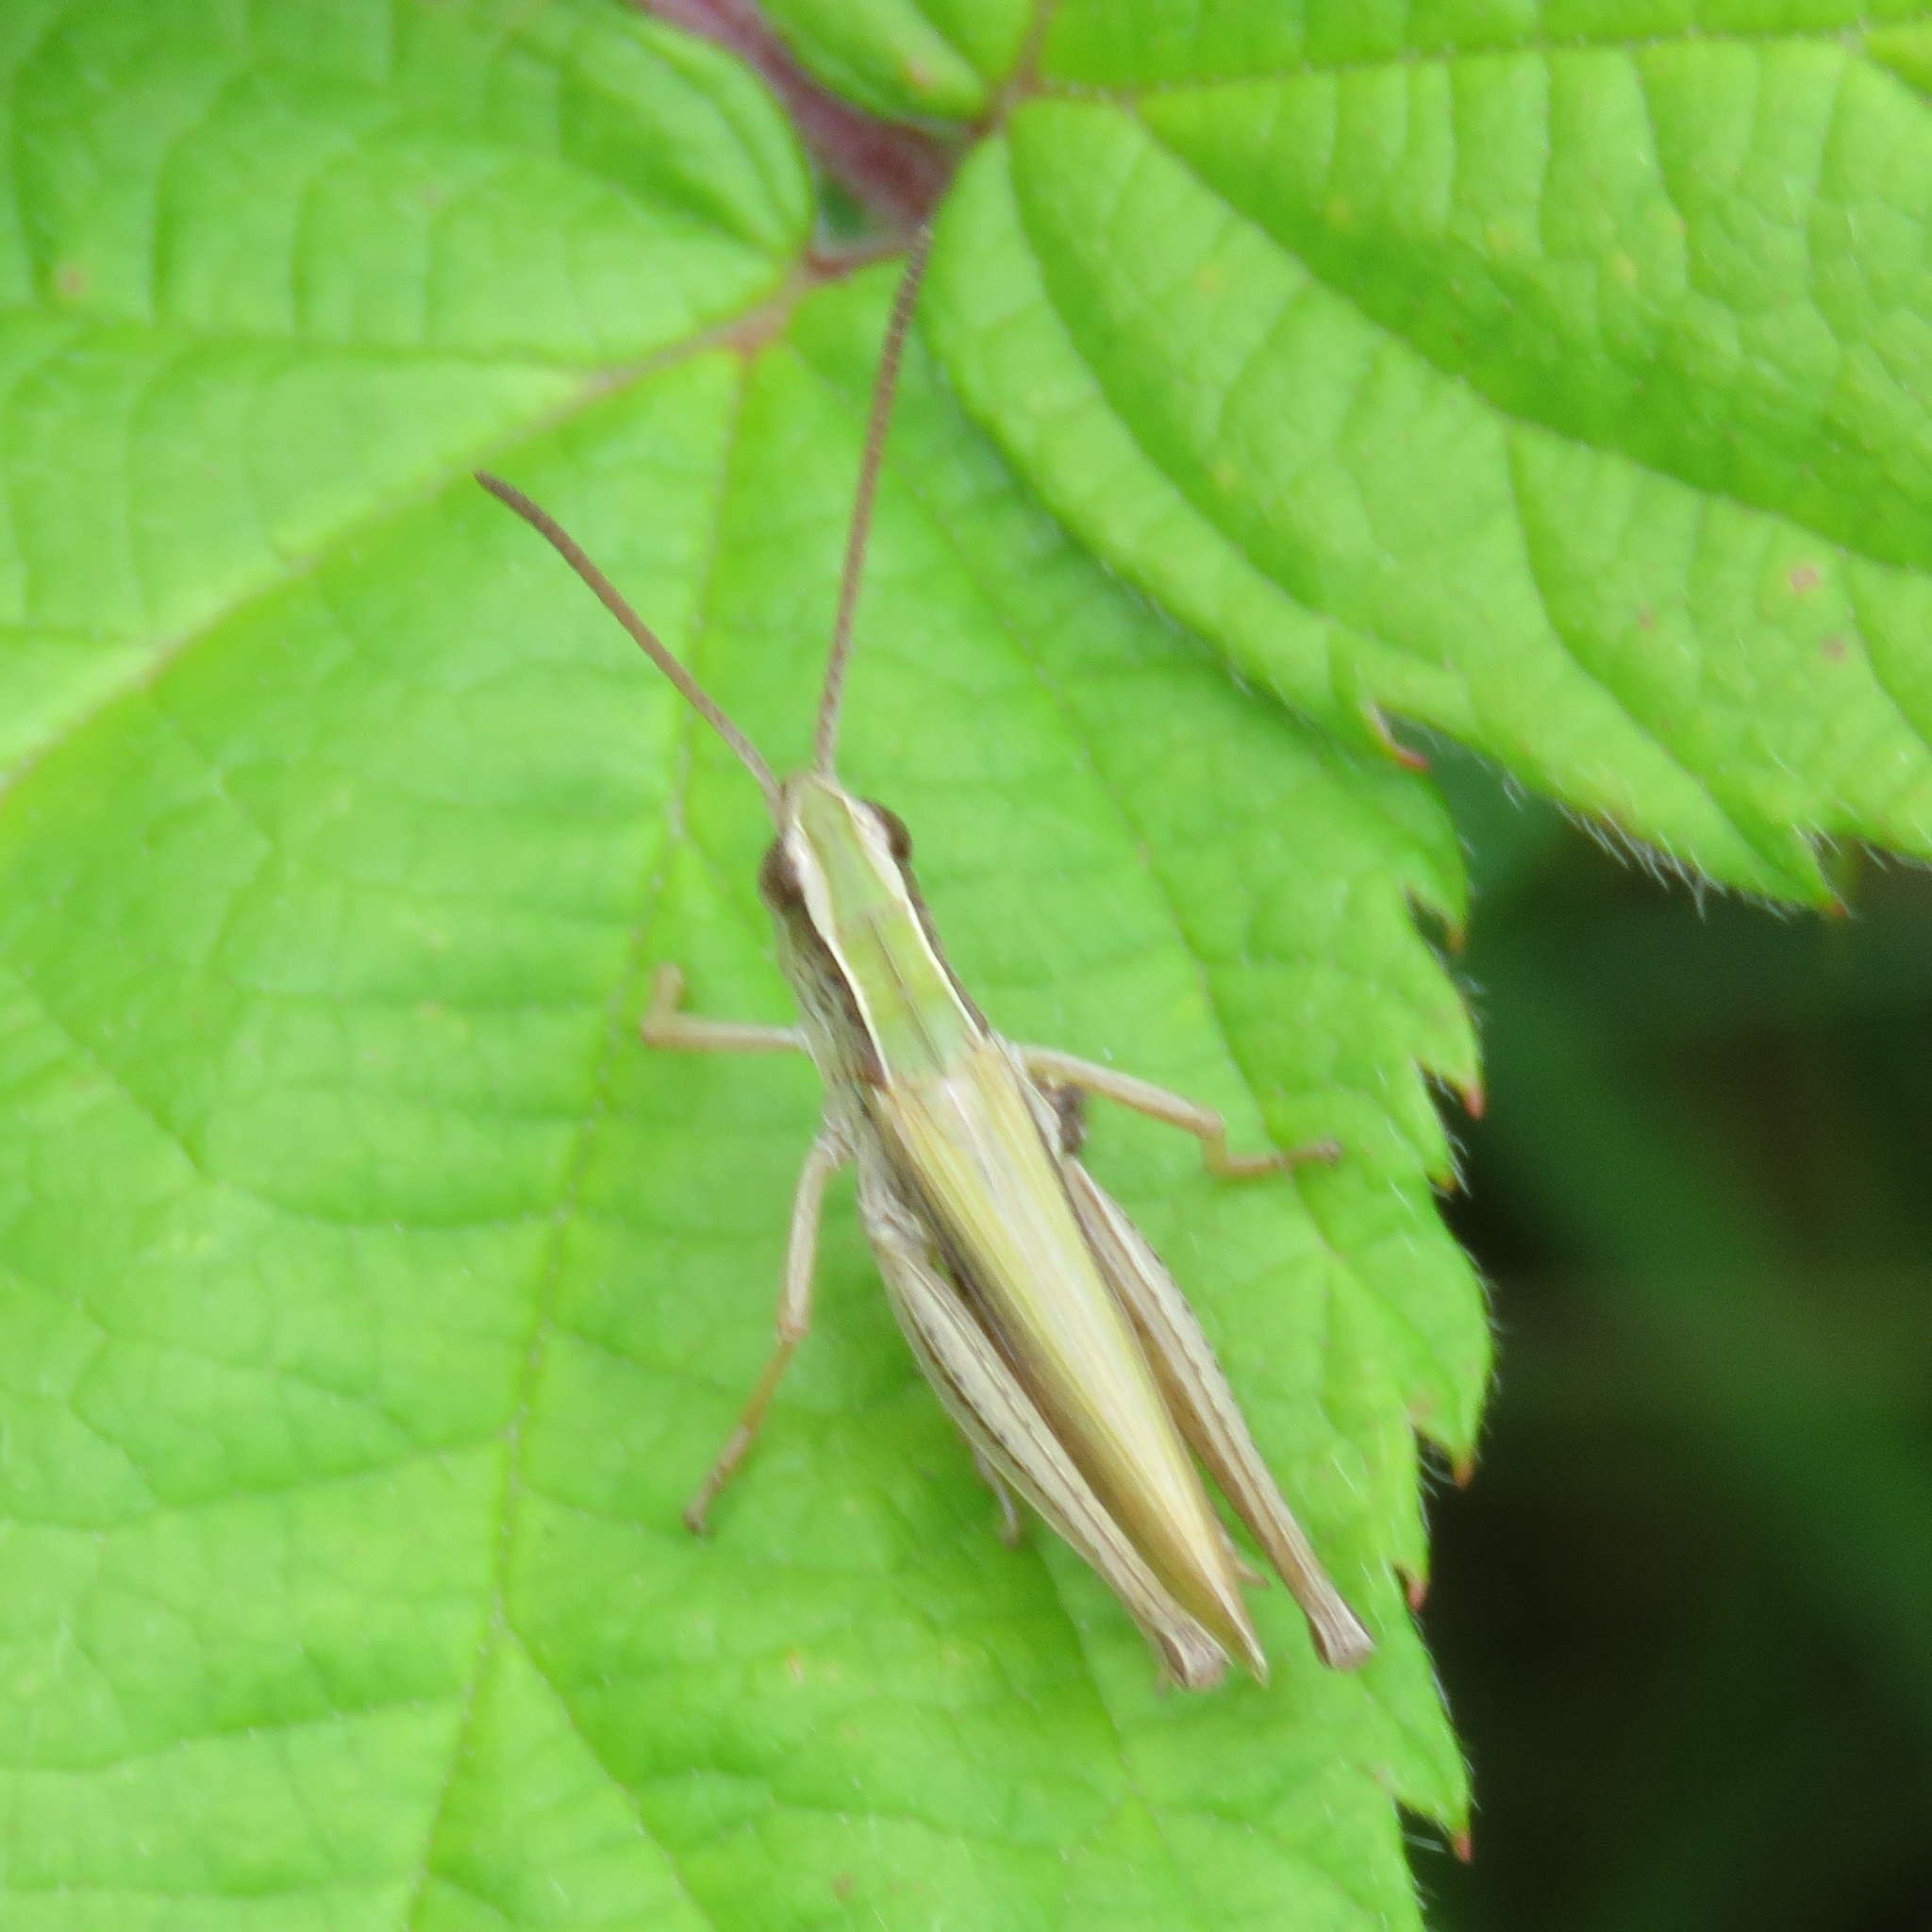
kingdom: Animalia
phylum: Arthropoda
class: Insecta
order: Orthoptera
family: Acrididae
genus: Chorthippus
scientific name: Chorthippus albomarginatus
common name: Lesser marsh grasshopper
